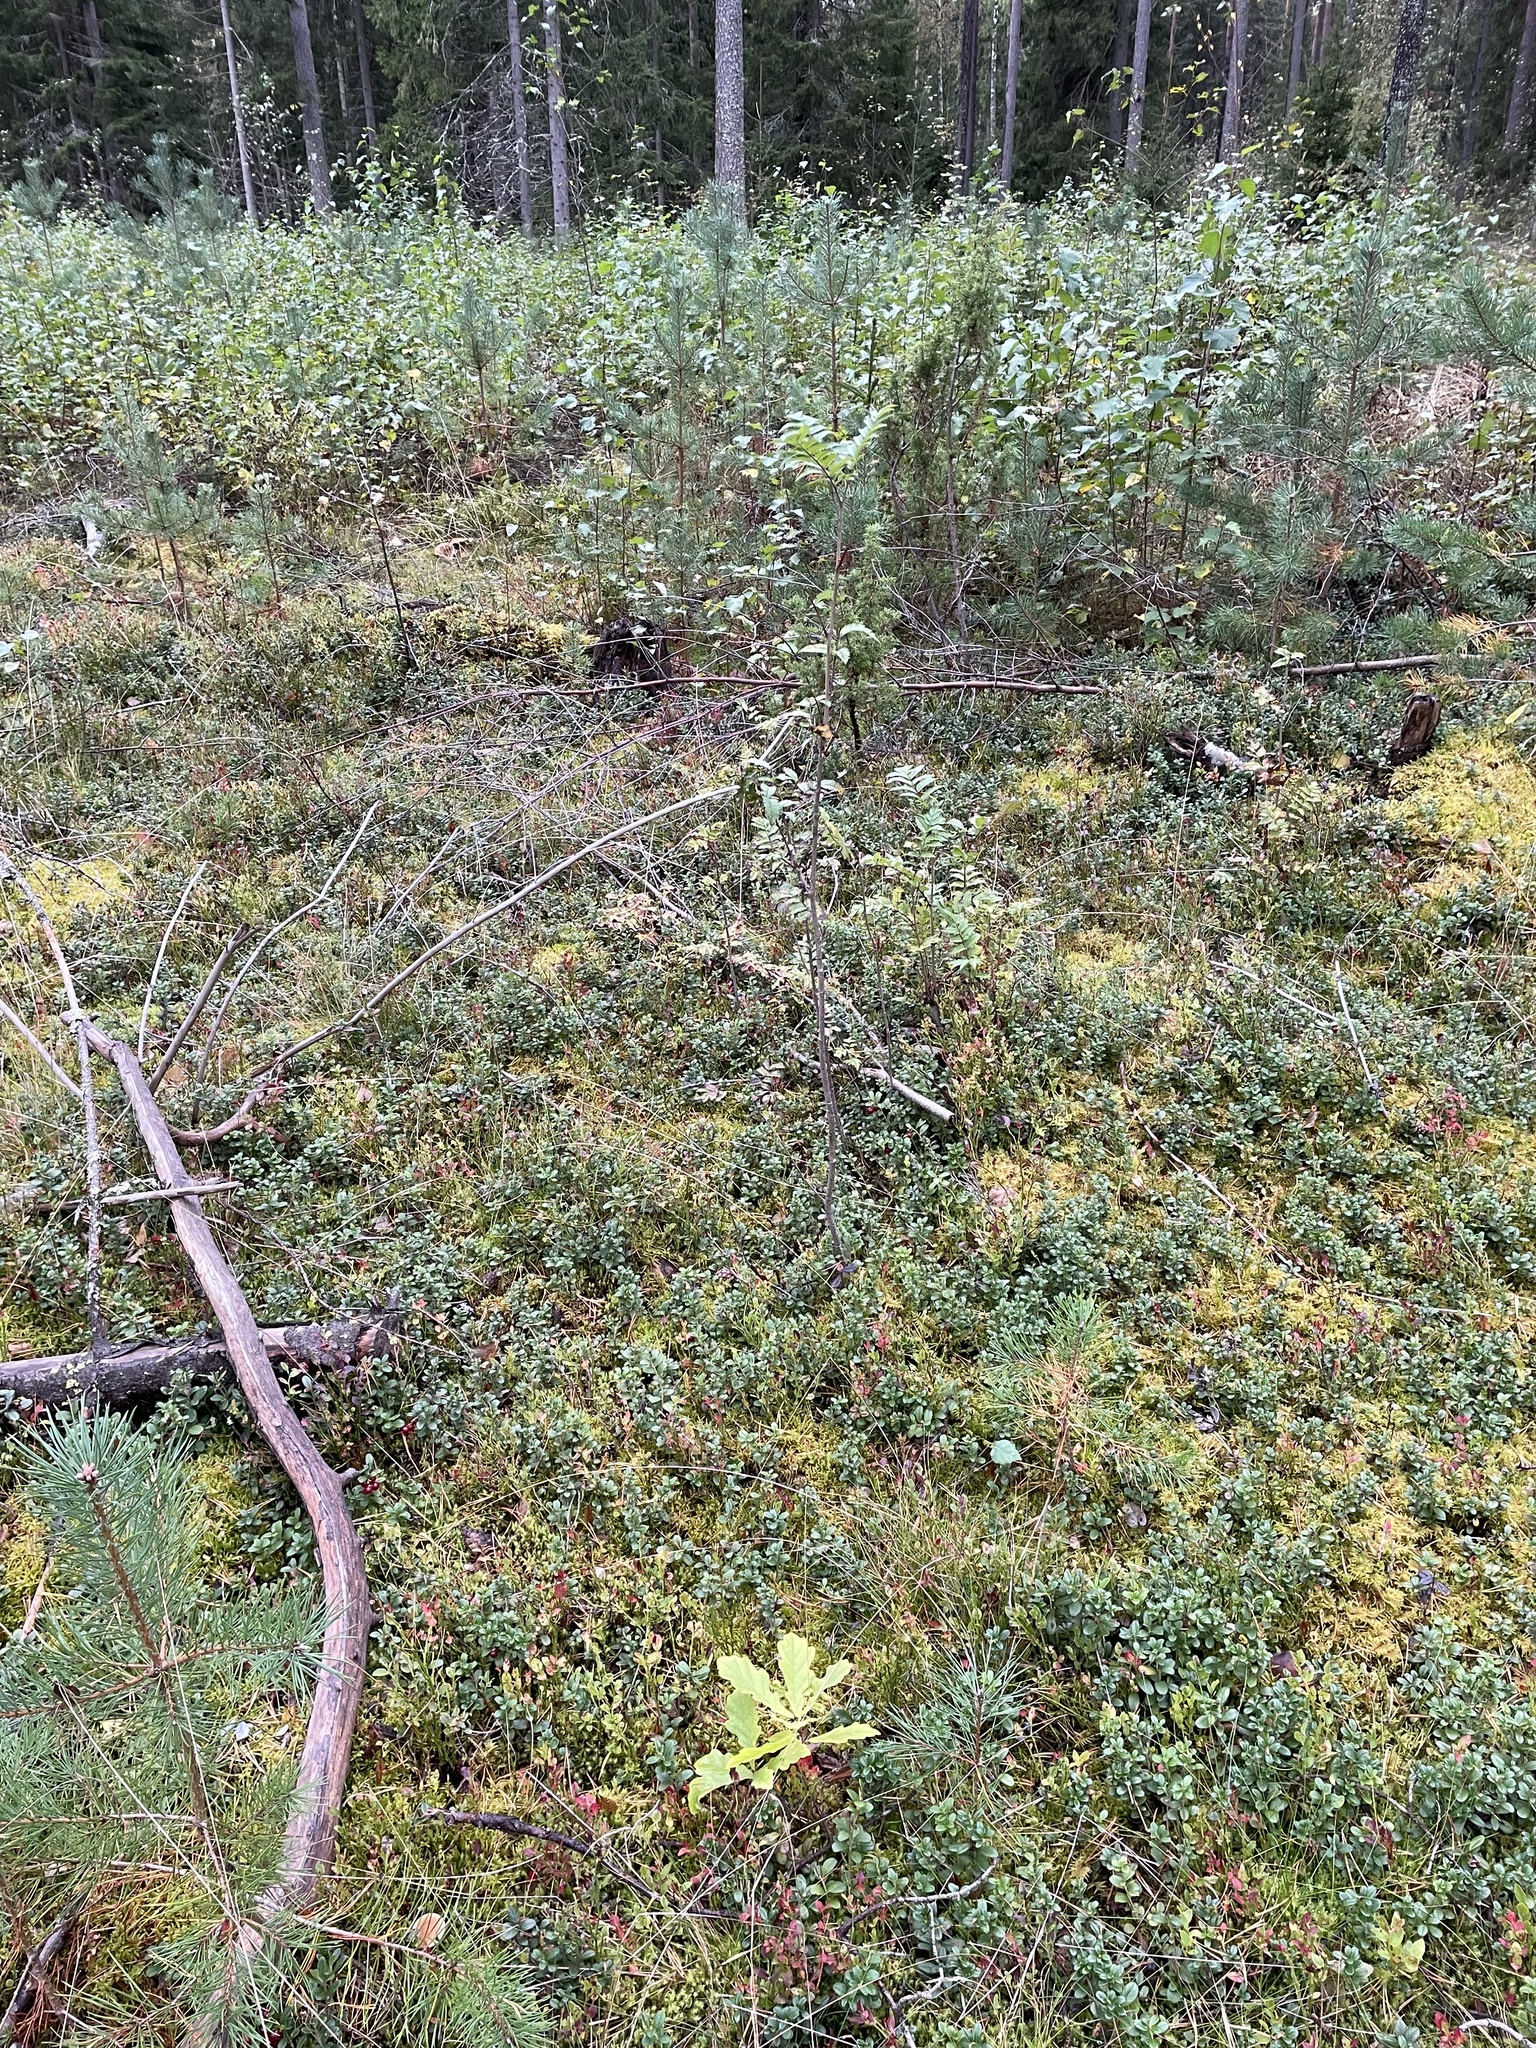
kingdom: Plantae
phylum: Tracheophyta
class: Magnoliopsida
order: Fagales
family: Fagaceae
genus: Quercus
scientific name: Quercus robur
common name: Pedunculate oak
